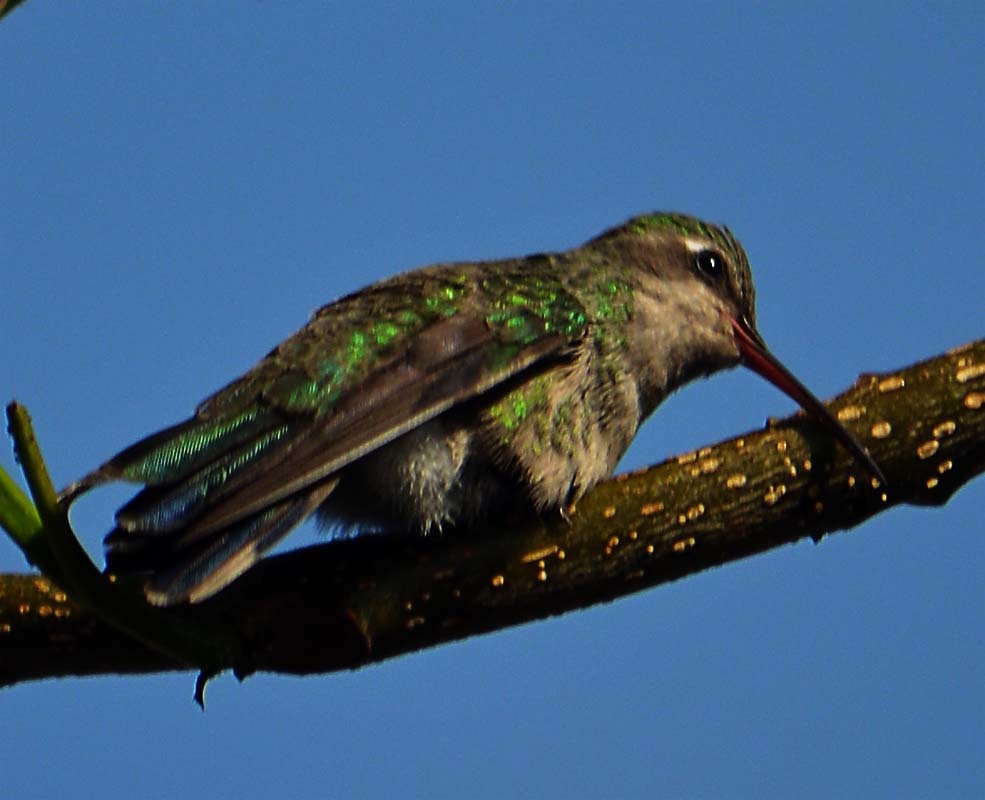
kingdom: Animalia
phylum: Chordata
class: Aves
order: Apodiformes
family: Trochilidae
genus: Cynanthus
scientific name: Cynanthus latirostris
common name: Broad-billed hummingbird
